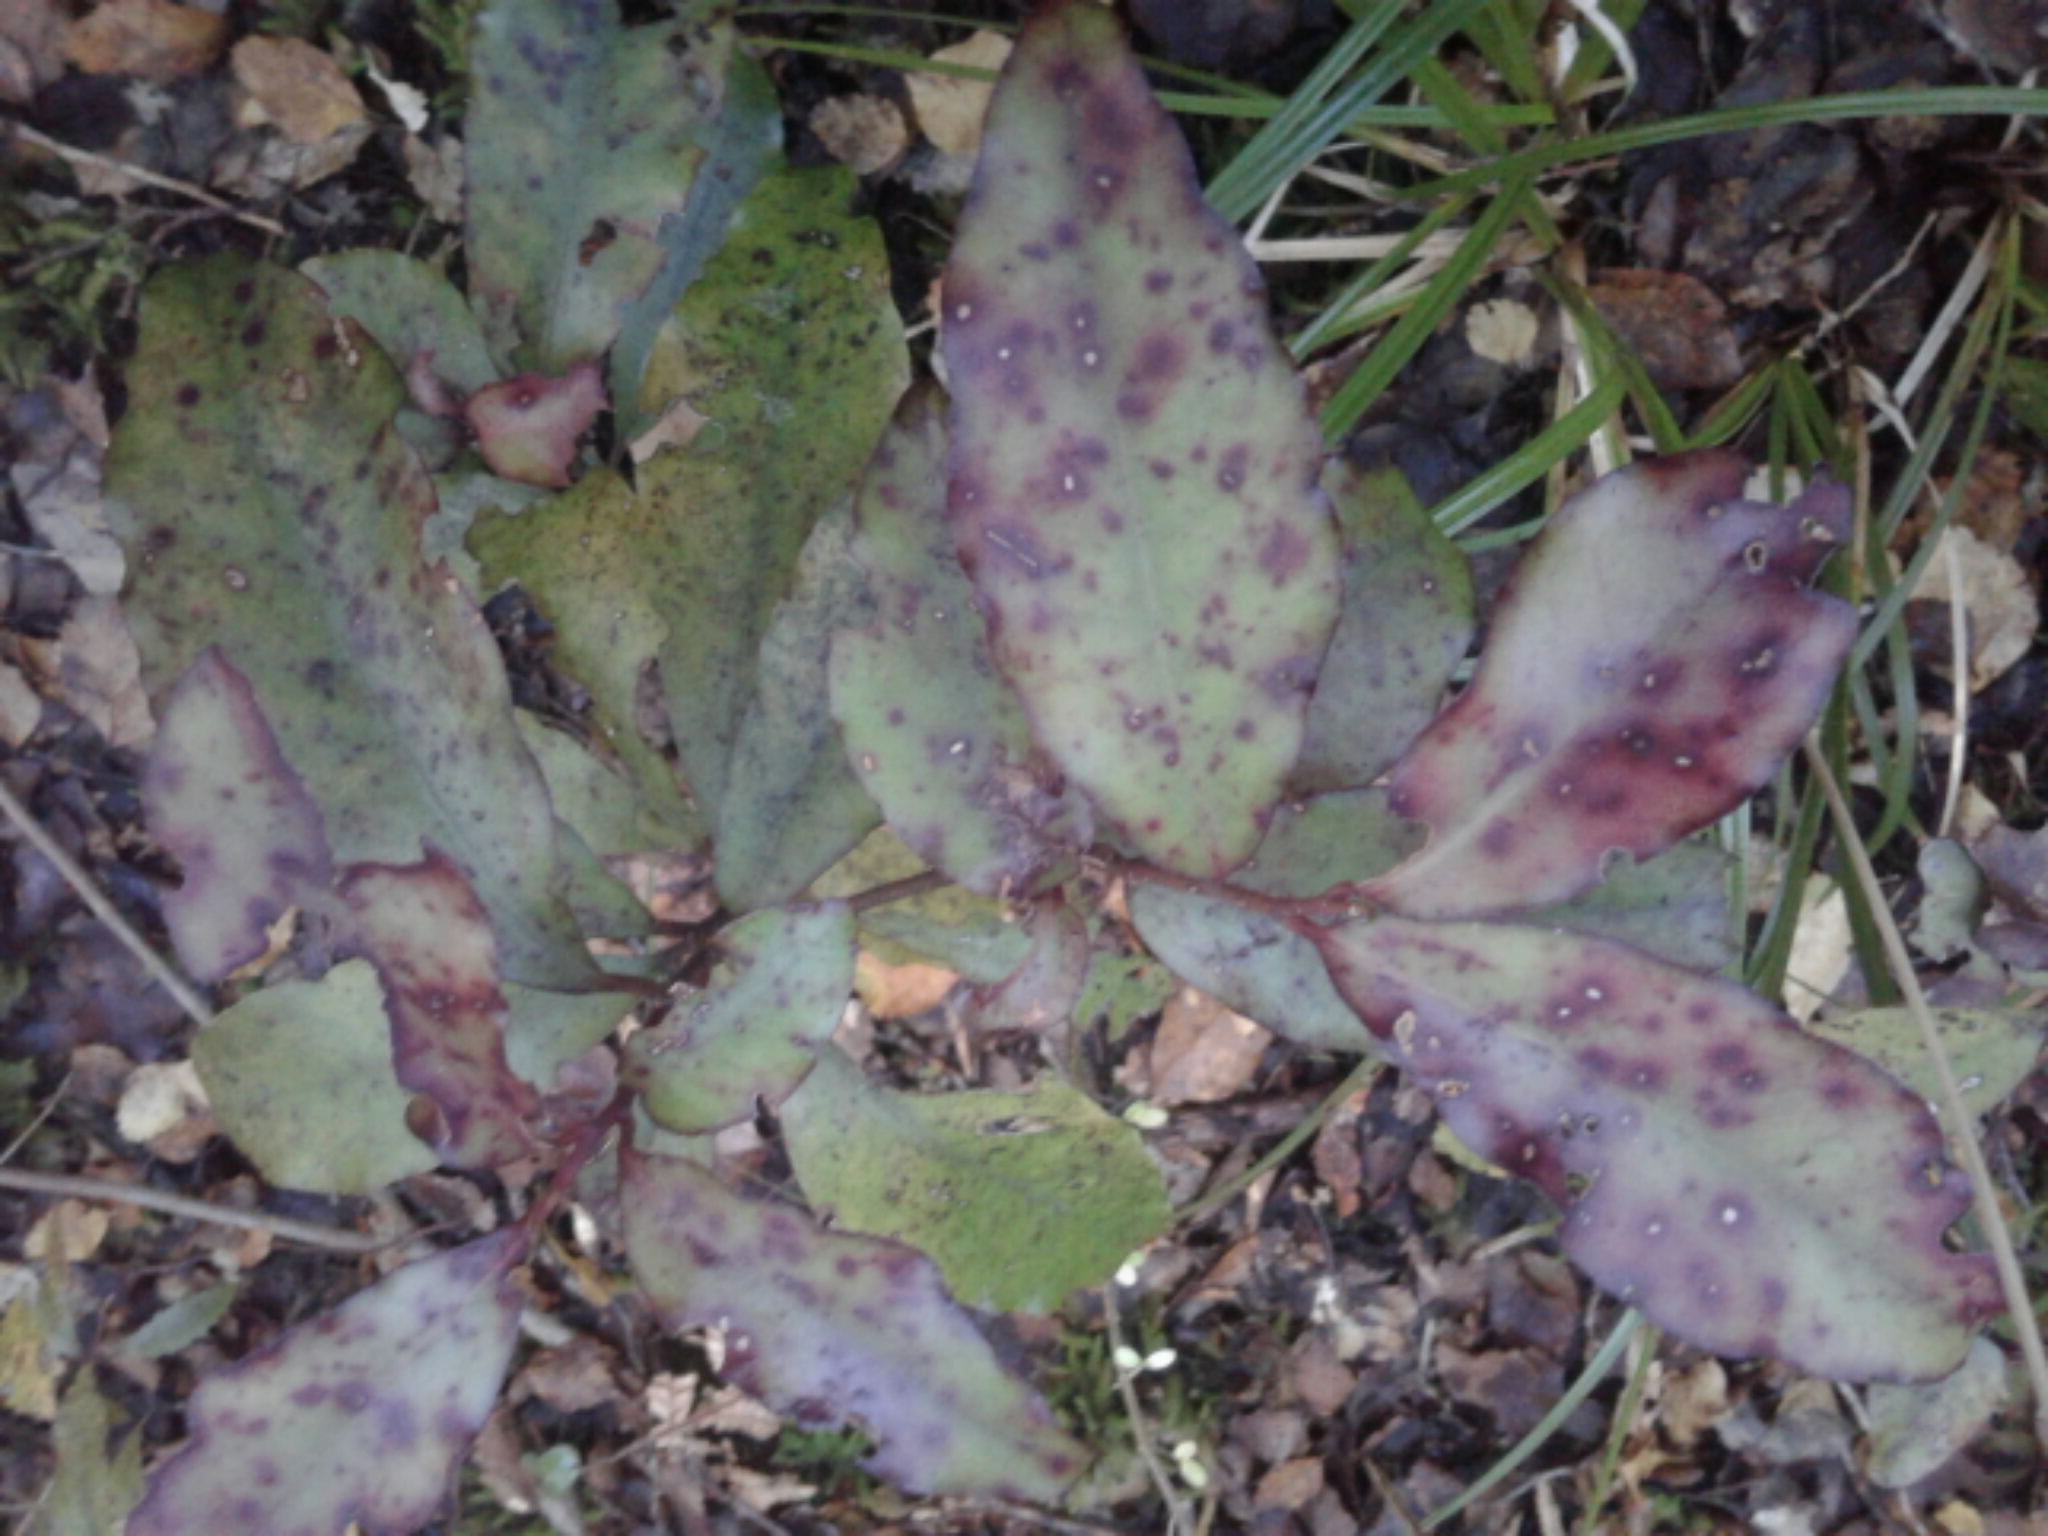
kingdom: Plantae
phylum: Tracheophyta
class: Magnoliopsida
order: Canellales
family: Winteraceae
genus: Pseudowintera
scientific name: Pseudowintera colorata
